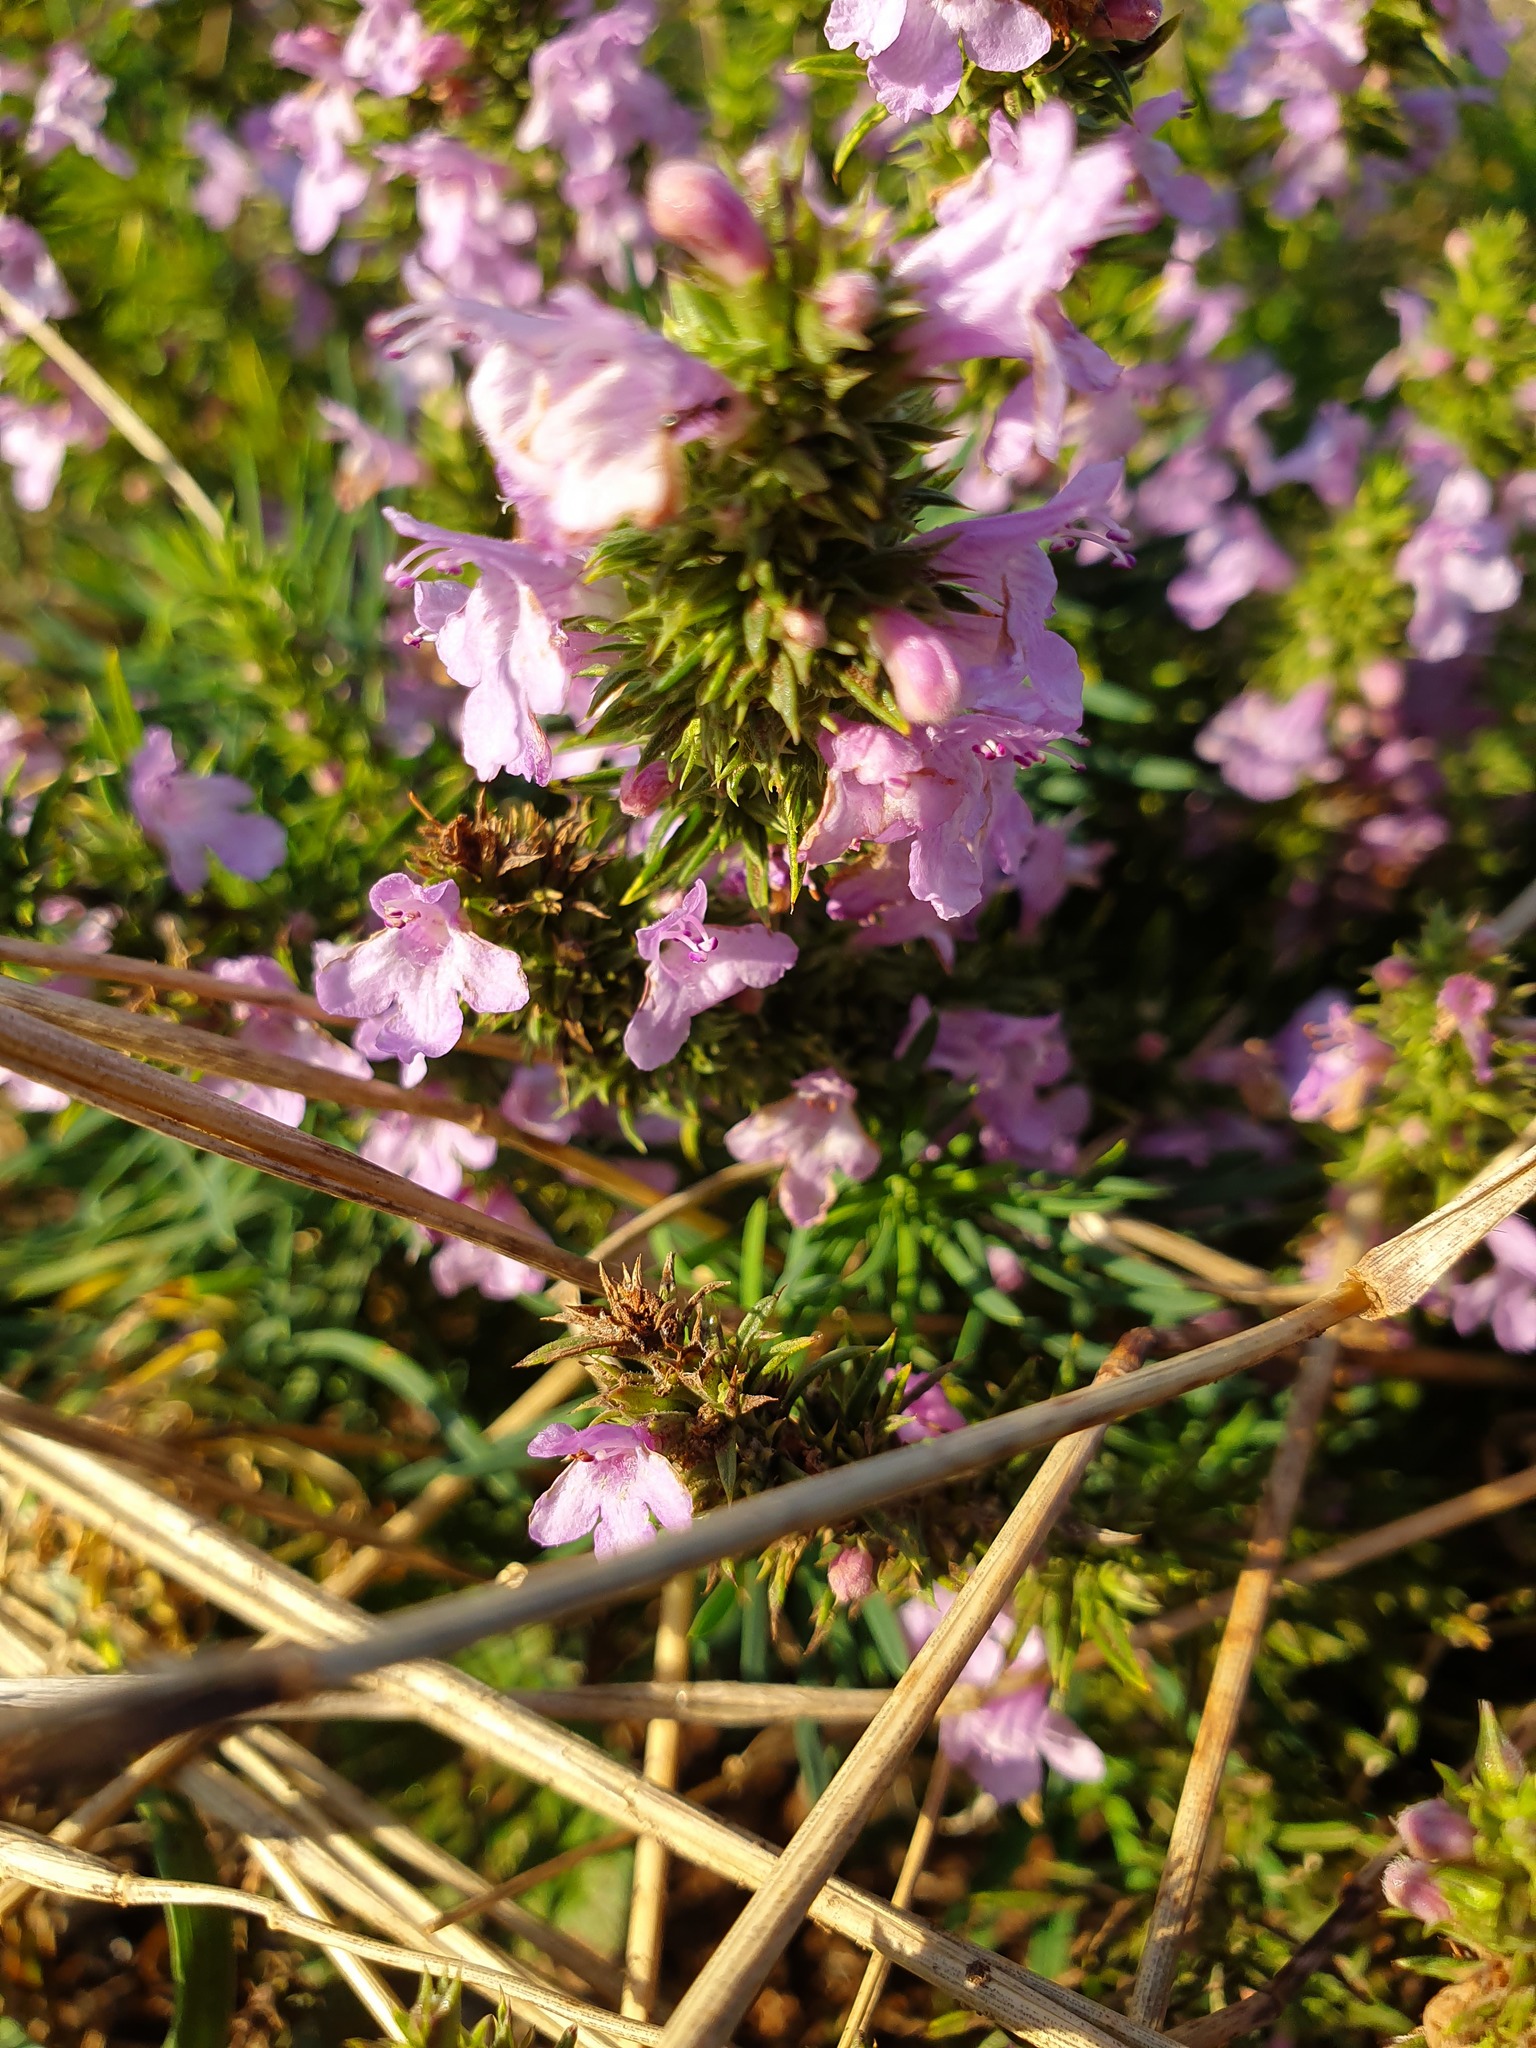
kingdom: Plantae
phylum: Tracheophyta
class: Magnoliopsida
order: Lamiales
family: Lamiaceae
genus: Satureja
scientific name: Satureja kitaibelii
